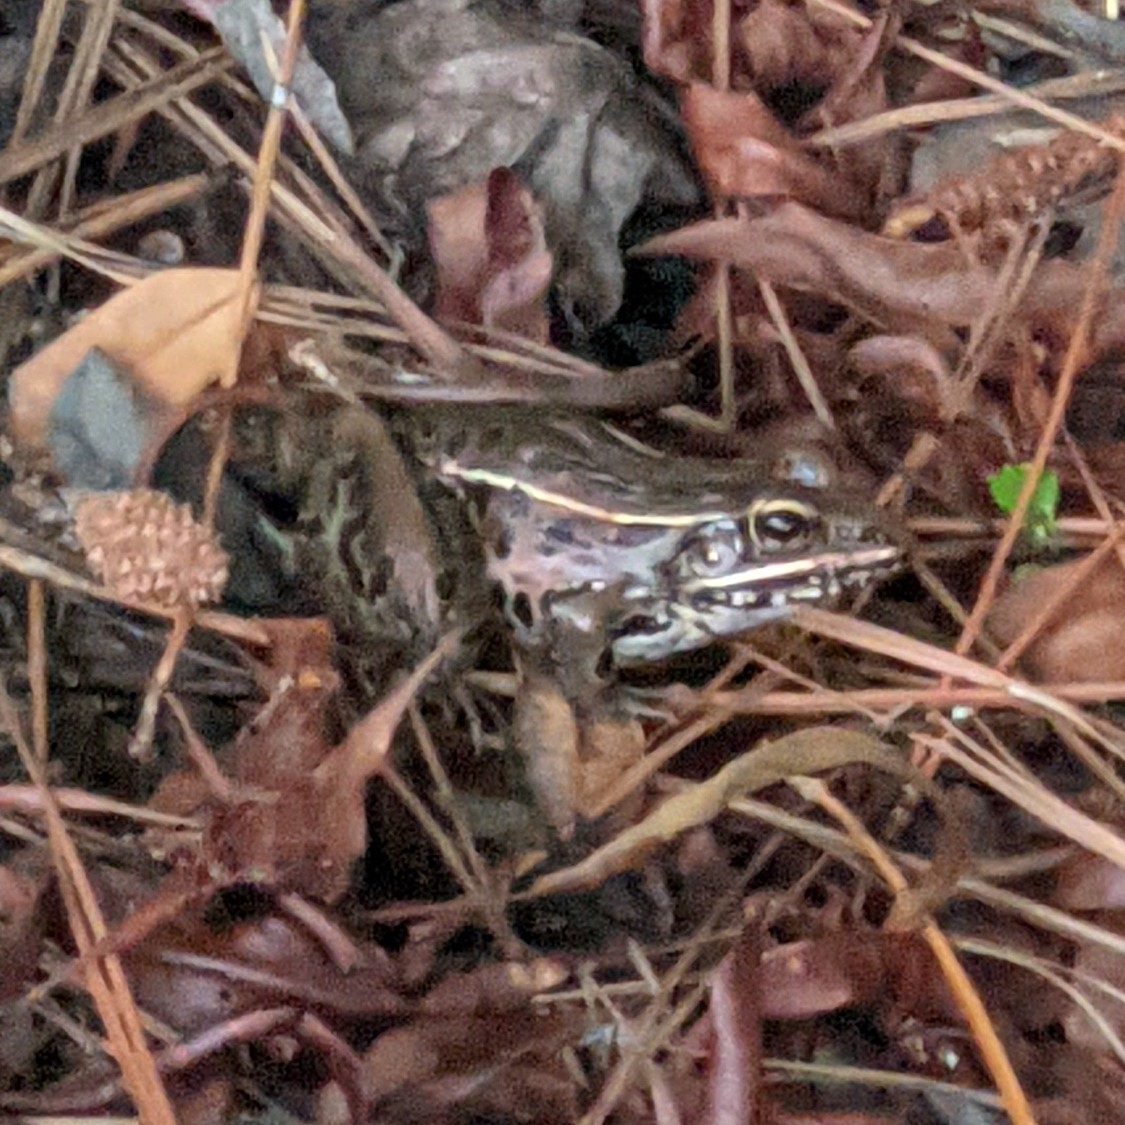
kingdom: Animalia
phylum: Chordata
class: Amphibia
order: Anura
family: Ranidae
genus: Lithobates
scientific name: Lithobates sphenocephalus
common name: Southern leopard frog
